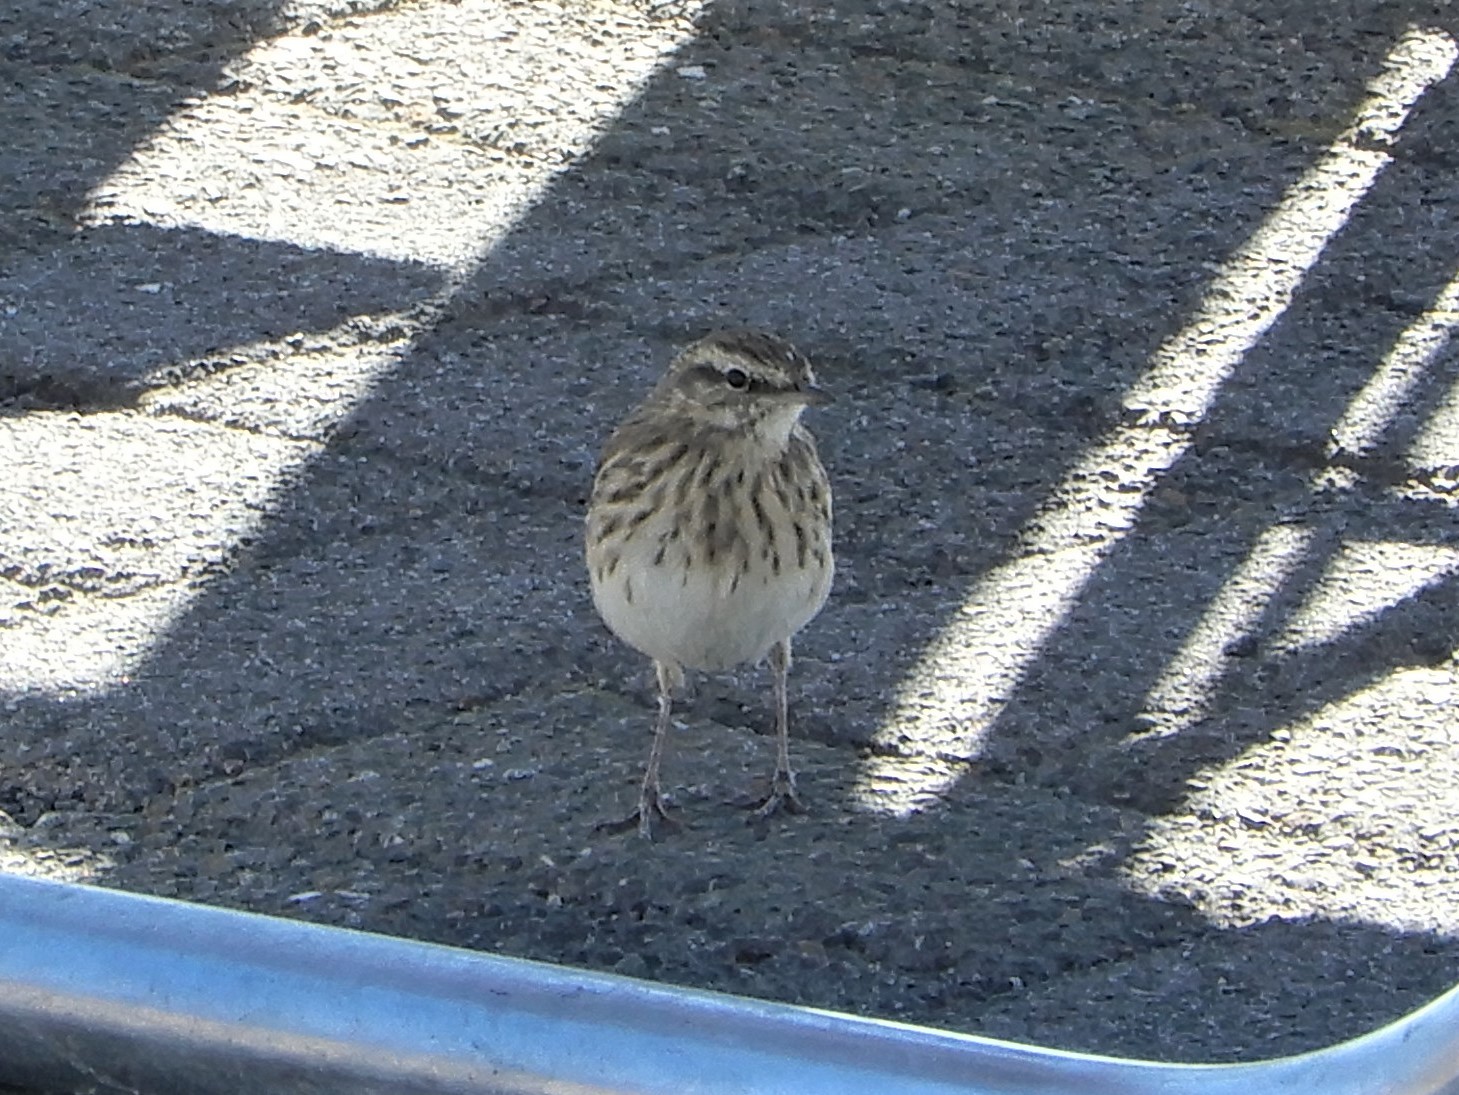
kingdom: Animalia
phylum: Chordata
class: Aves
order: Passeriformes
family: Motacillidae
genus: Anthus
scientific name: Anthus novaeseelandiae
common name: New zealand pipit
